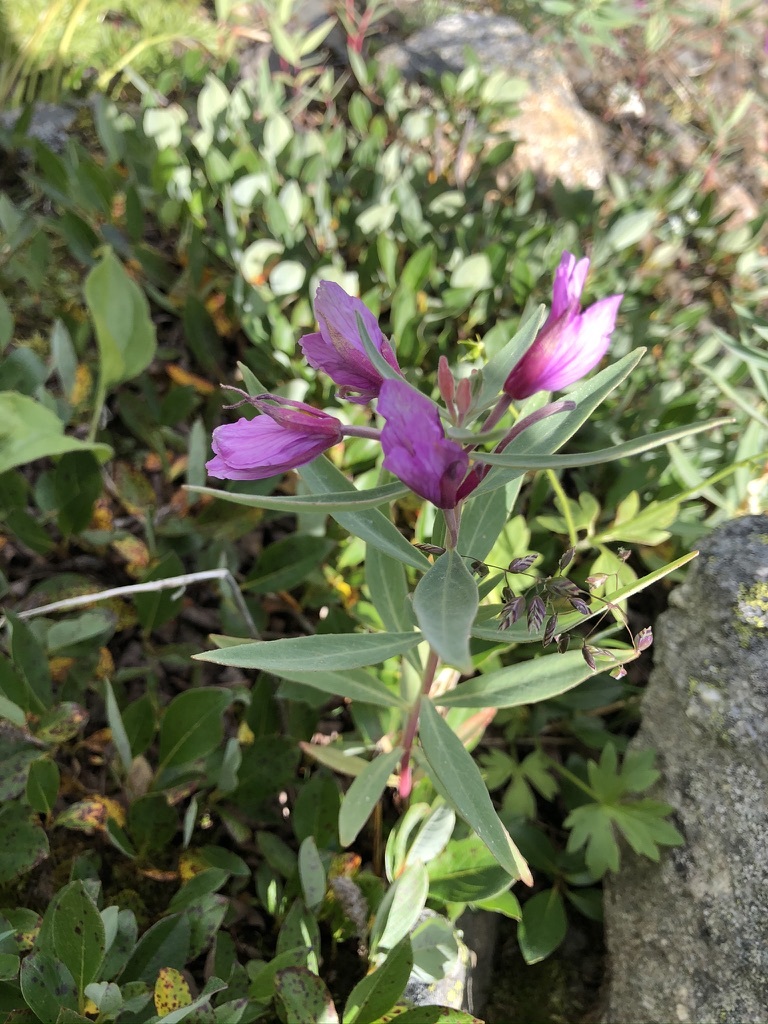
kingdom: Plantae
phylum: Tracheophyta
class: Magnoliopsida
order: Myrtales
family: Onagraceae
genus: Chamaenerion
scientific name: Chamaenerion latifolium
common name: Dwarf fireweed
